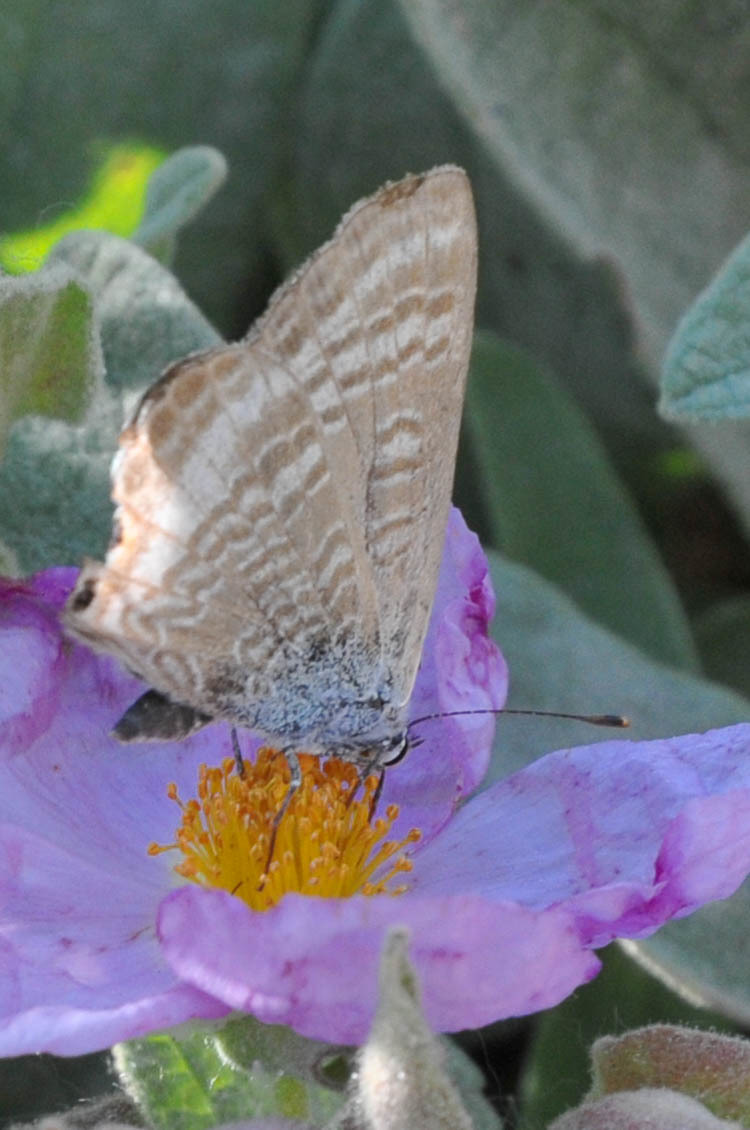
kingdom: Animalia
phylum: Arthropoda
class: Insecta
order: Lepidoptera
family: Lycaenidae
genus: Lampides
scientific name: Lampides boeticus
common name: Long-tailed blue
